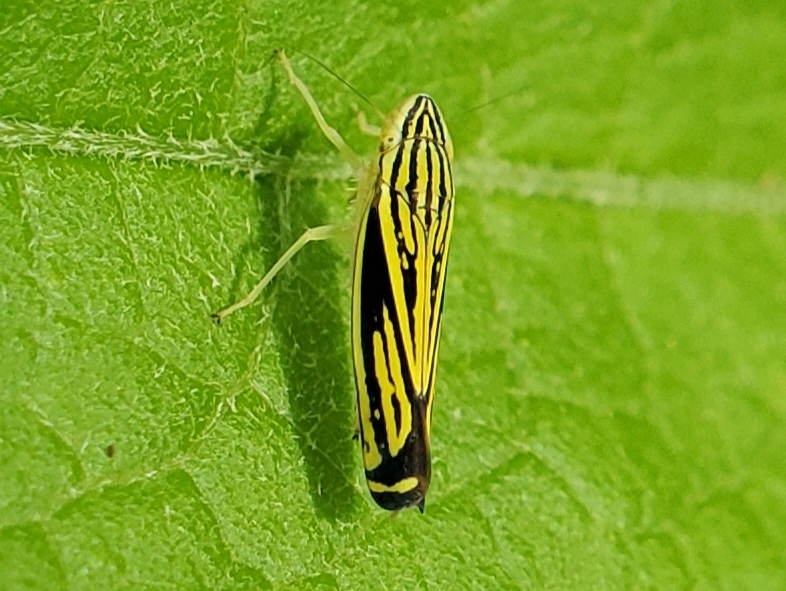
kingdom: Animalia
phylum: Arthropoda
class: Insecta
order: Hemiptera
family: Cicadellidae
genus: Sibovia
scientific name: Sibovia occatoria
